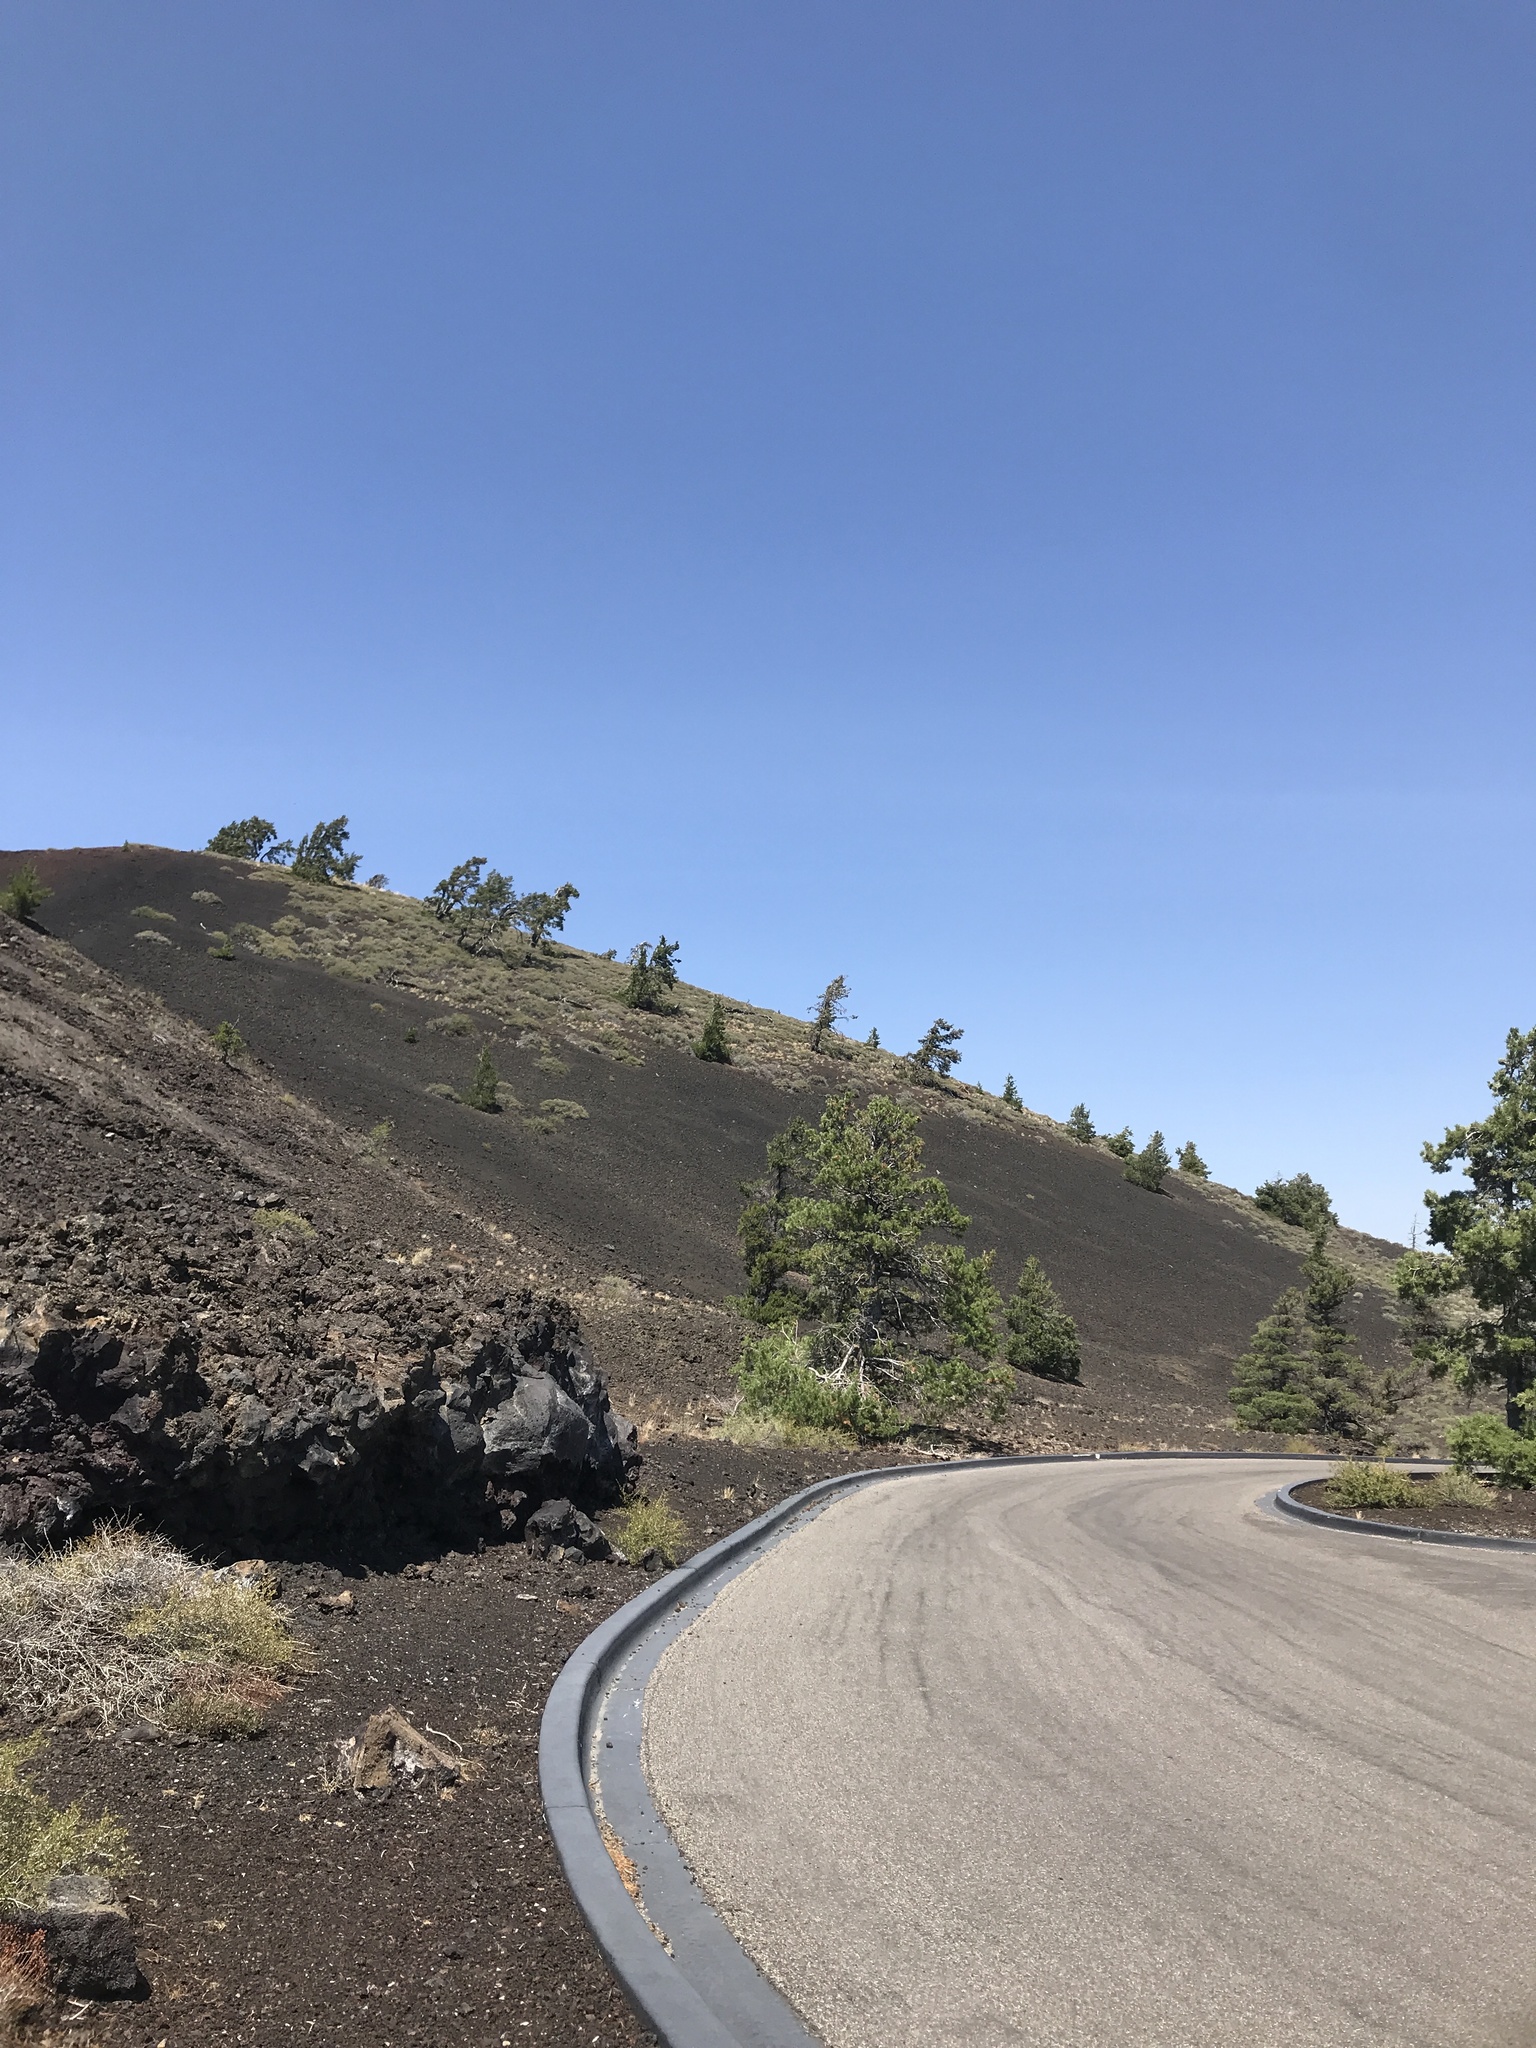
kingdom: Plantae
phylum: Tracheophyta
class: Pinopsida
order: Pinales
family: Pinaceae
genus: Pinus
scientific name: Pinus flexilis
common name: Limber pine
